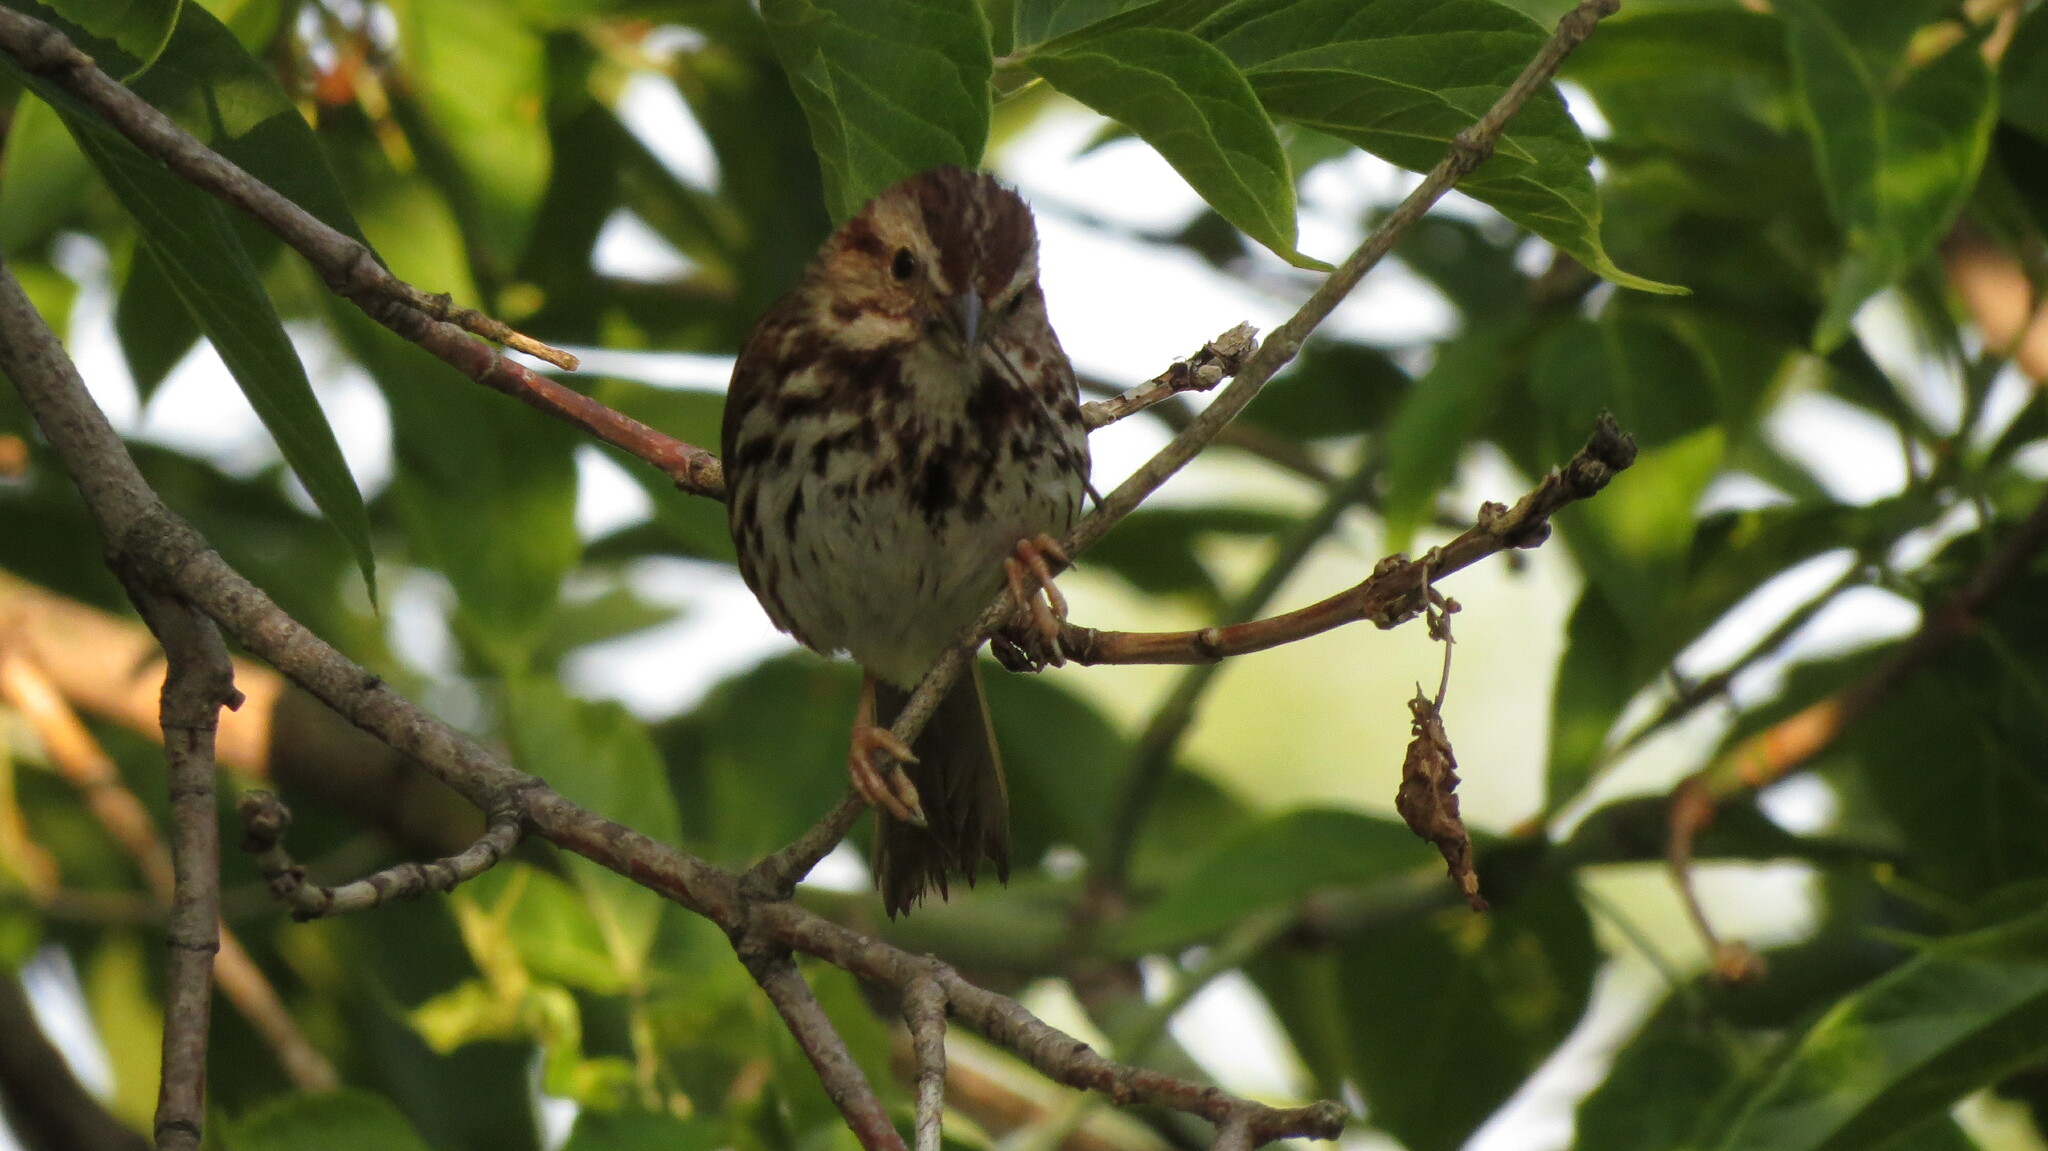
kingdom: Animalia
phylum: Chordata
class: Aves
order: Passeriformes
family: Passerellidae
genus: Melospiza
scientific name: Melospiza melodia
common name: Song sparrow
